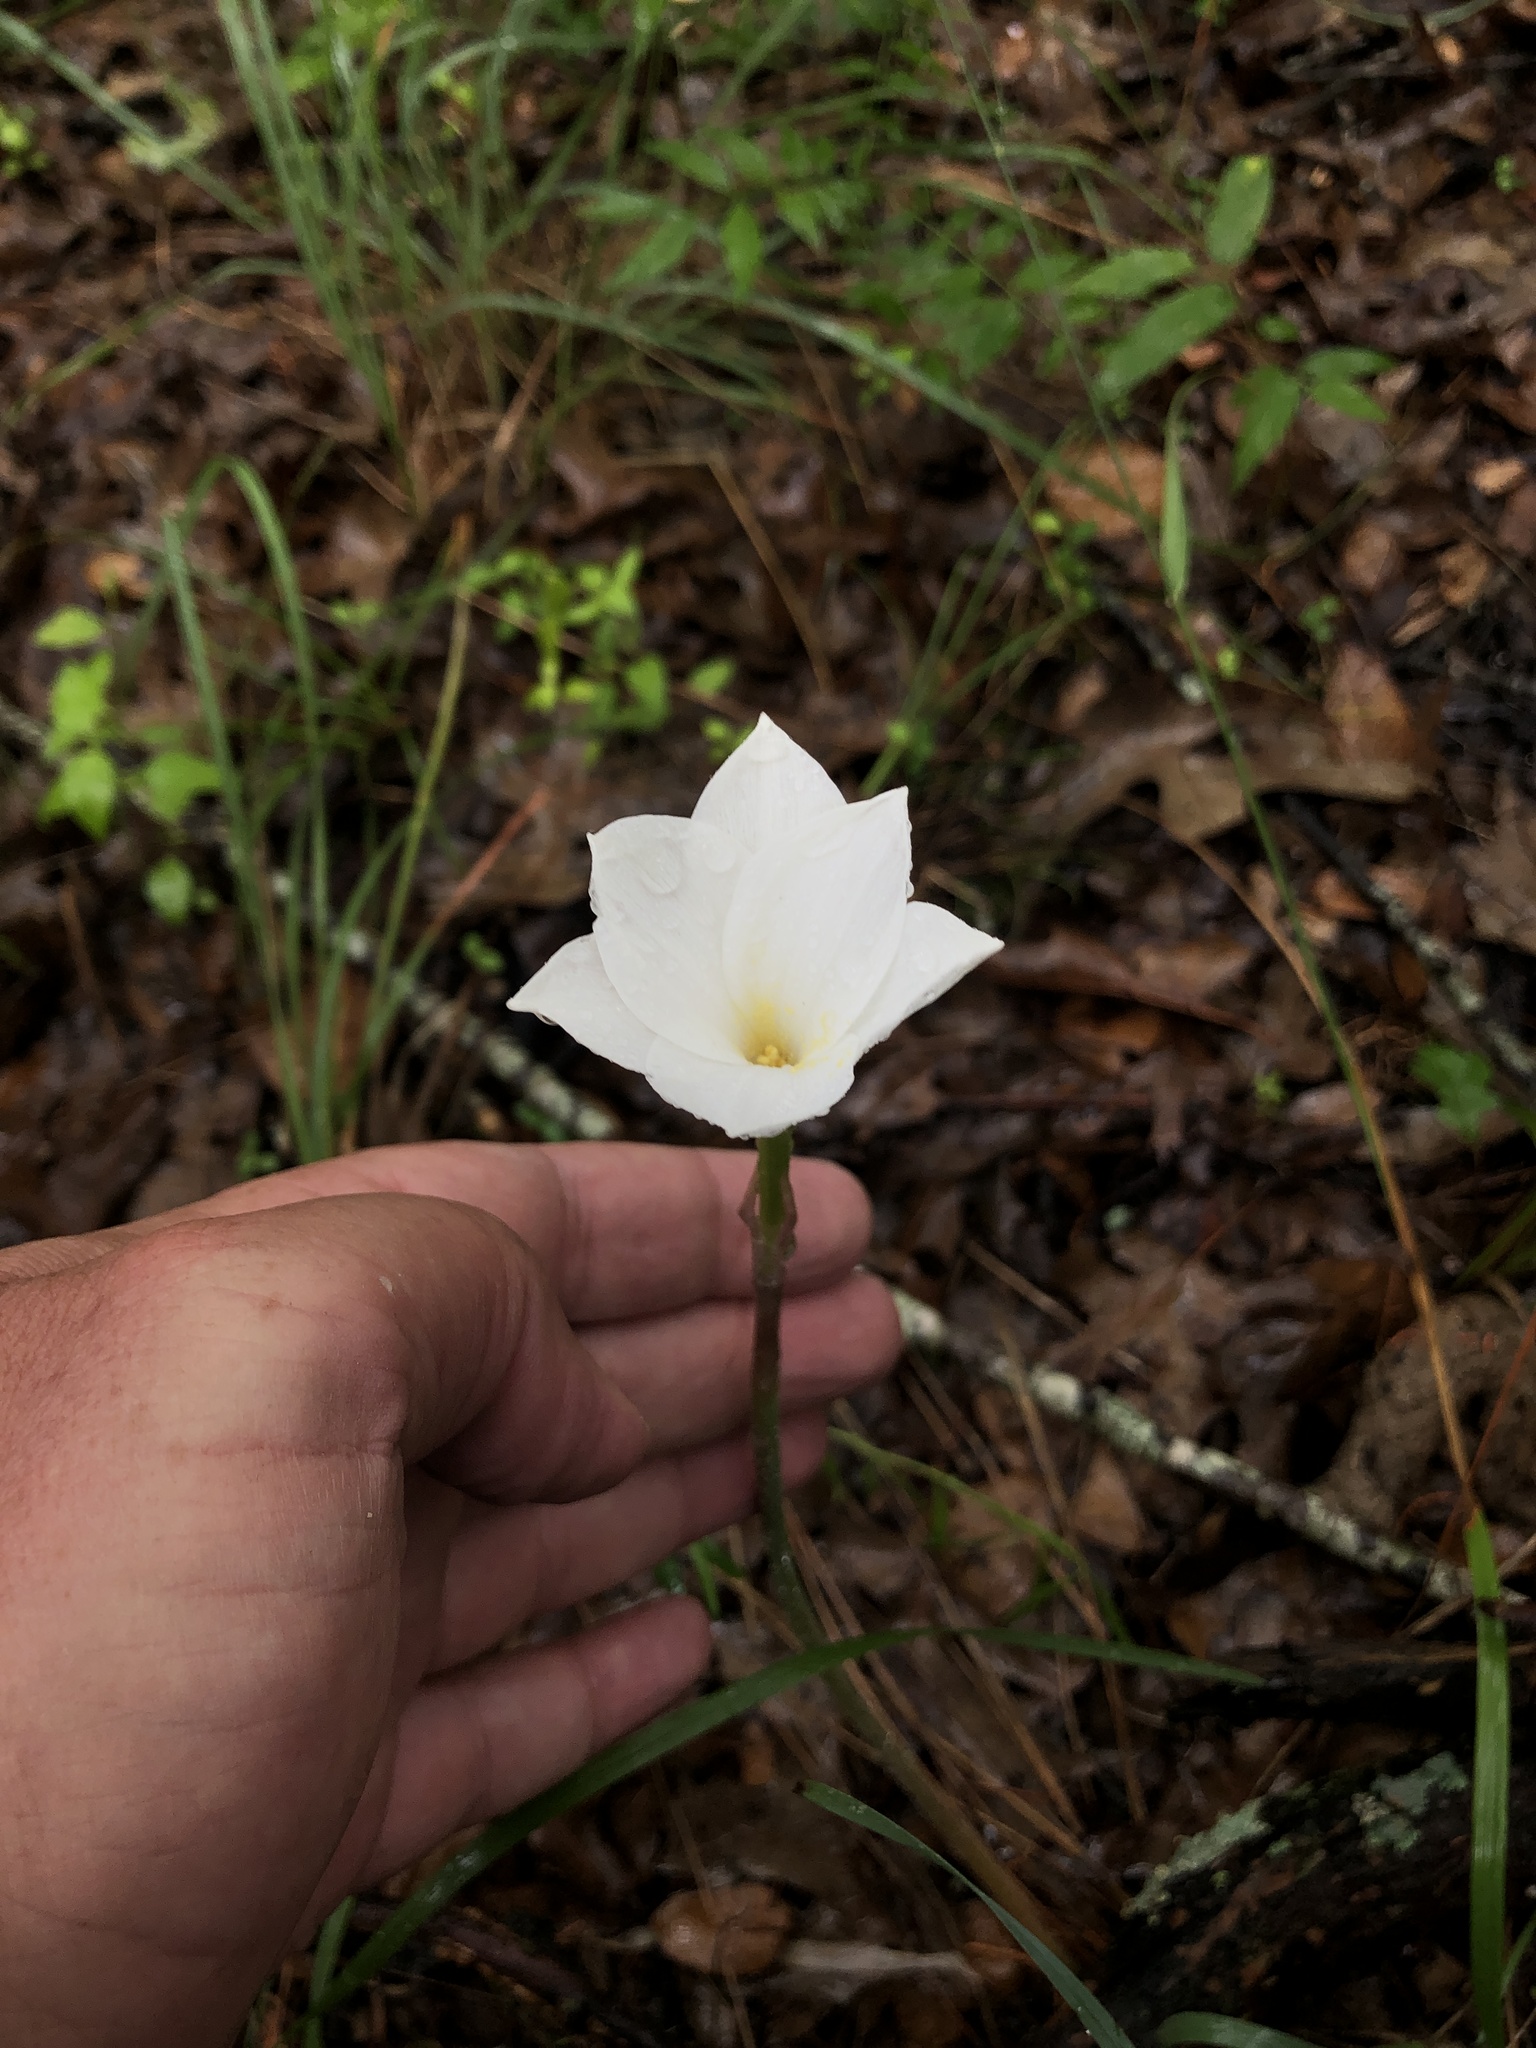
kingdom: Plantae
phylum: Tracheophyta
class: Liliopsida
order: Asparagales
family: Amaryllidaceae
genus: Zephyranthes
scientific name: Zephyranthes drummondii
